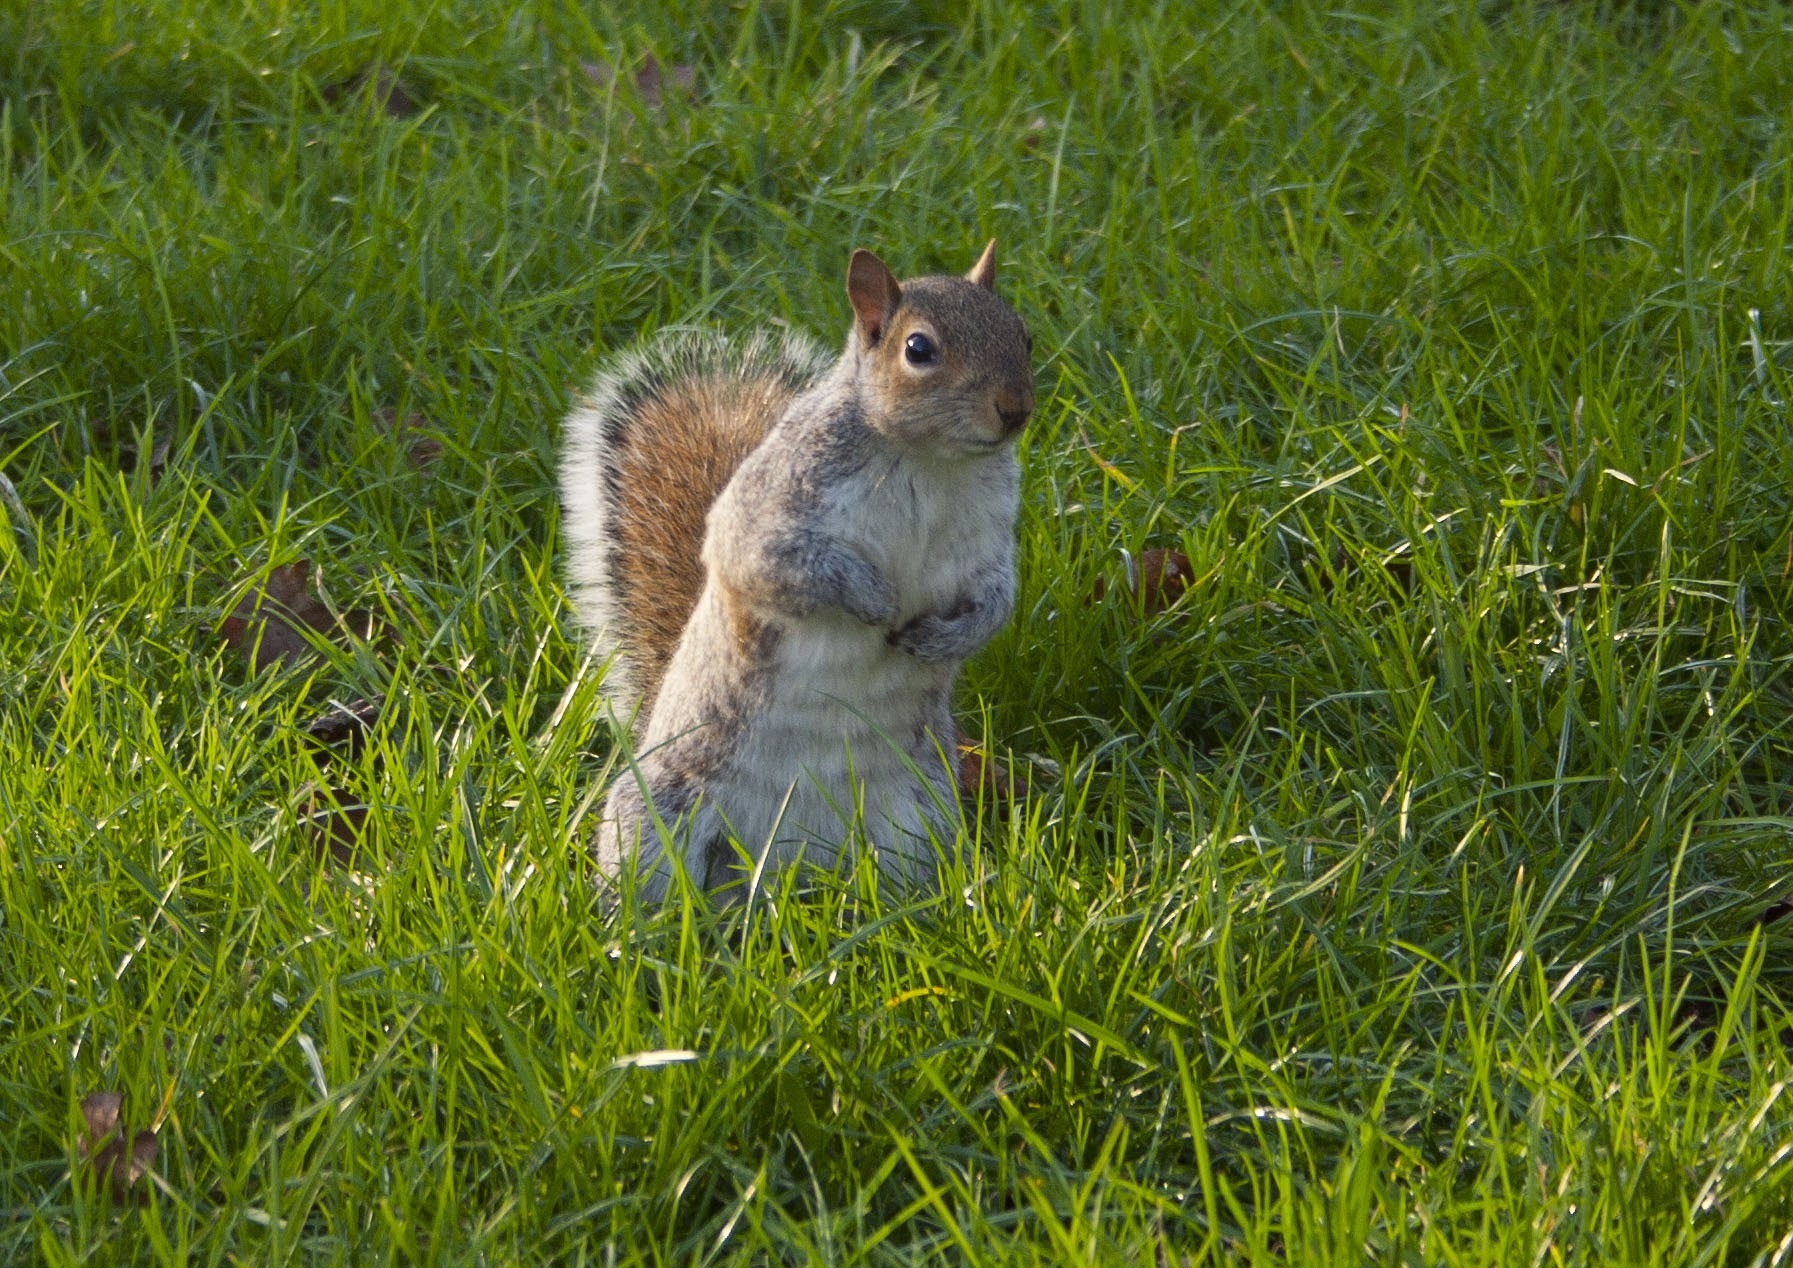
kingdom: Animalia
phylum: Chordata
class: Mammalia
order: Rodentia
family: Sciuridae
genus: Sciurus
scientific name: Sciurus carolinensis
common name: Eastern gray squirrel
